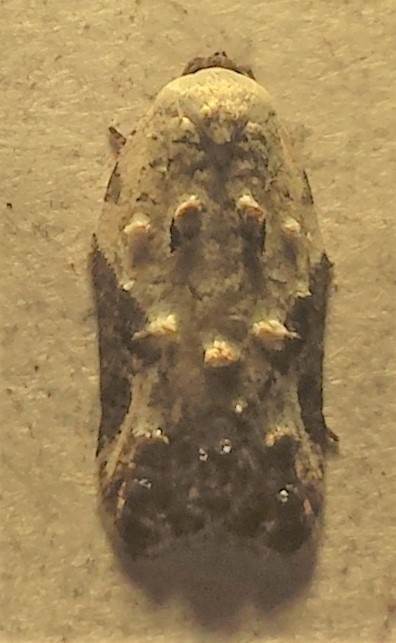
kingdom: Animalia
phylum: Arthropoda
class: Insecta
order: Lepidoptera
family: Tortricidae
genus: Acleris
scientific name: Acleris nivisellana
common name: Snowy-shouldered acleris moth
